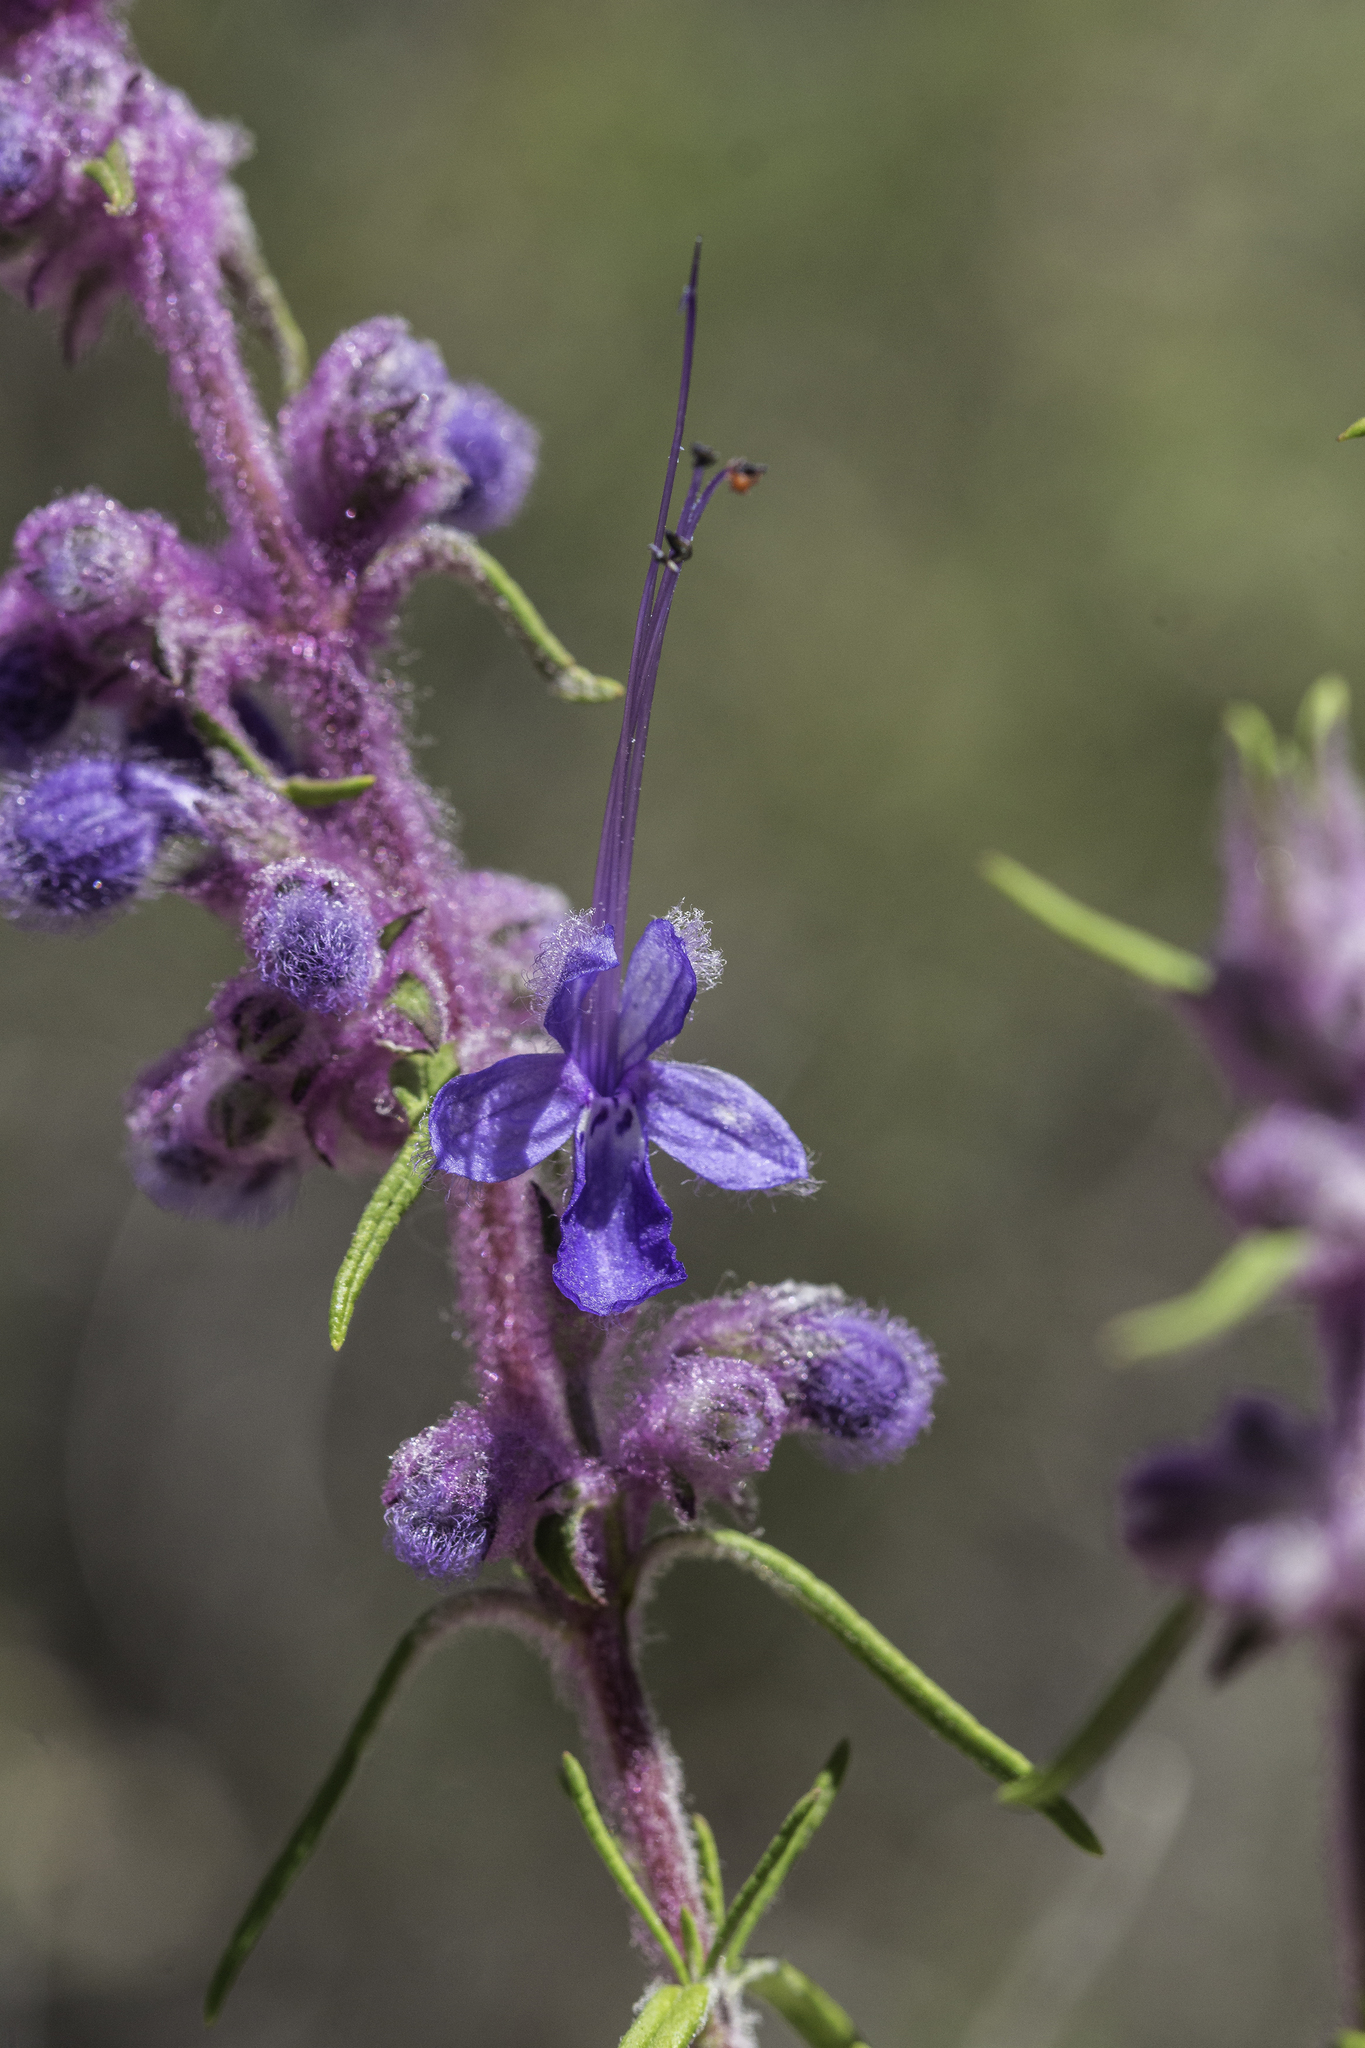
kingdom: Plantae
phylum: Tracheophyta
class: Magnoliopsida
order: Lamiales
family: Lamiaceae
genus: Trichostema
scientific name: Trichostema lanatum
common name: Woolly bluecurls
